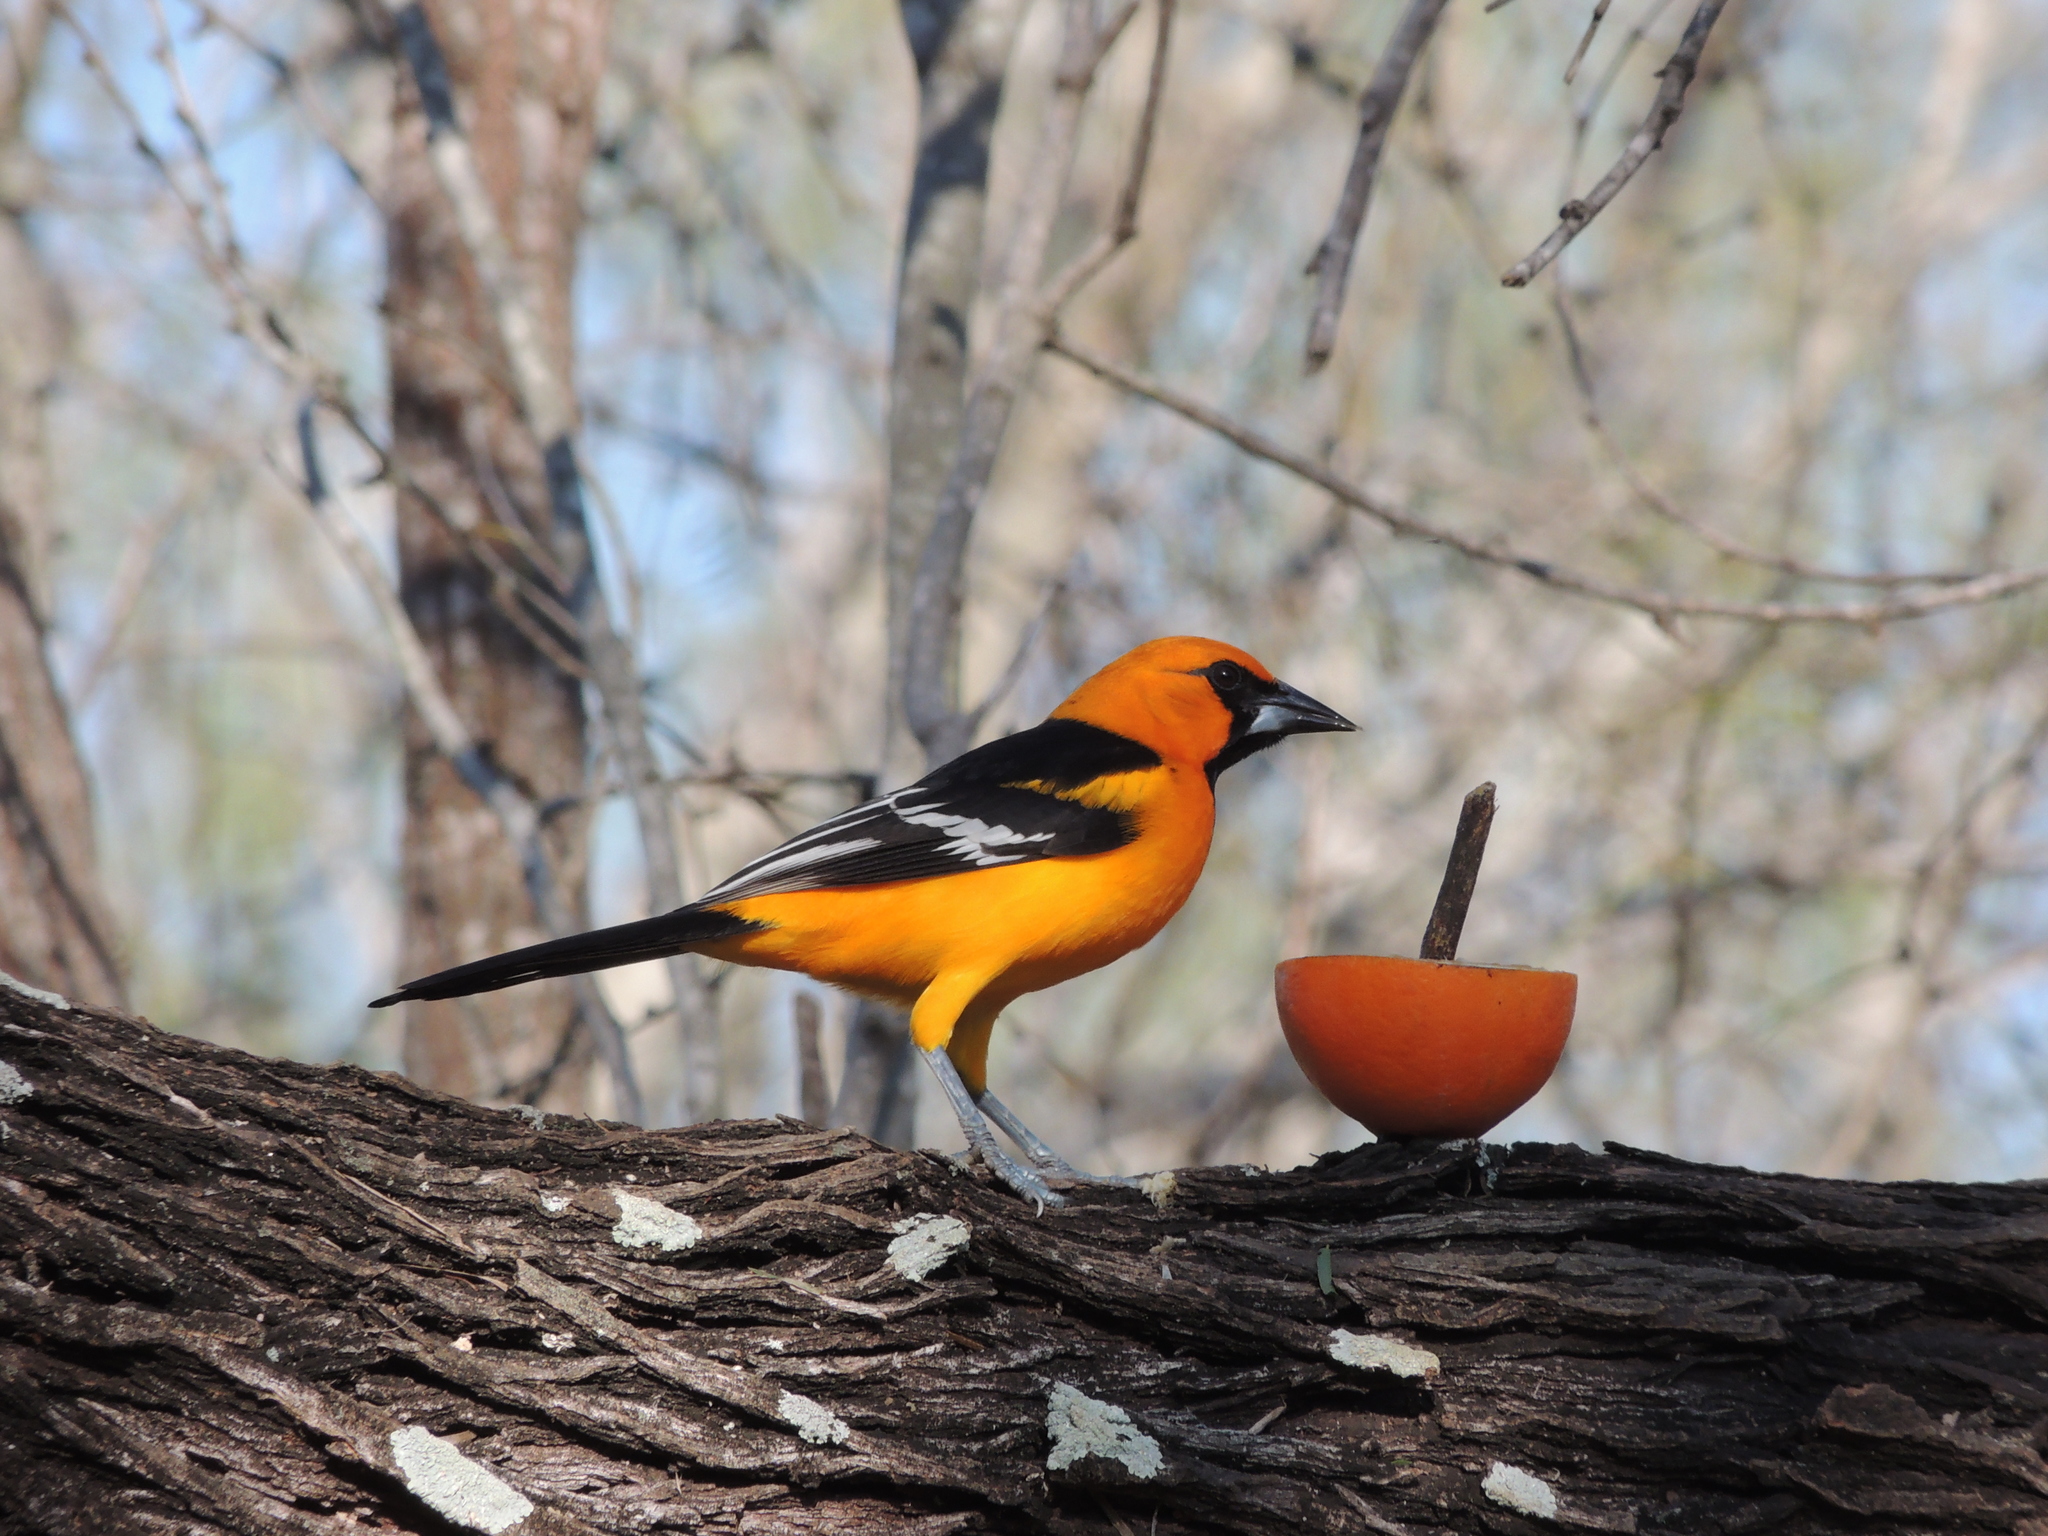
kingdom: Animalia
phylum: Chordata
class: Aves
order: Passeriformes
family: Icteridae
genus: Icterus
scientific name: Icterus gularis
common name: Altamira oriole
